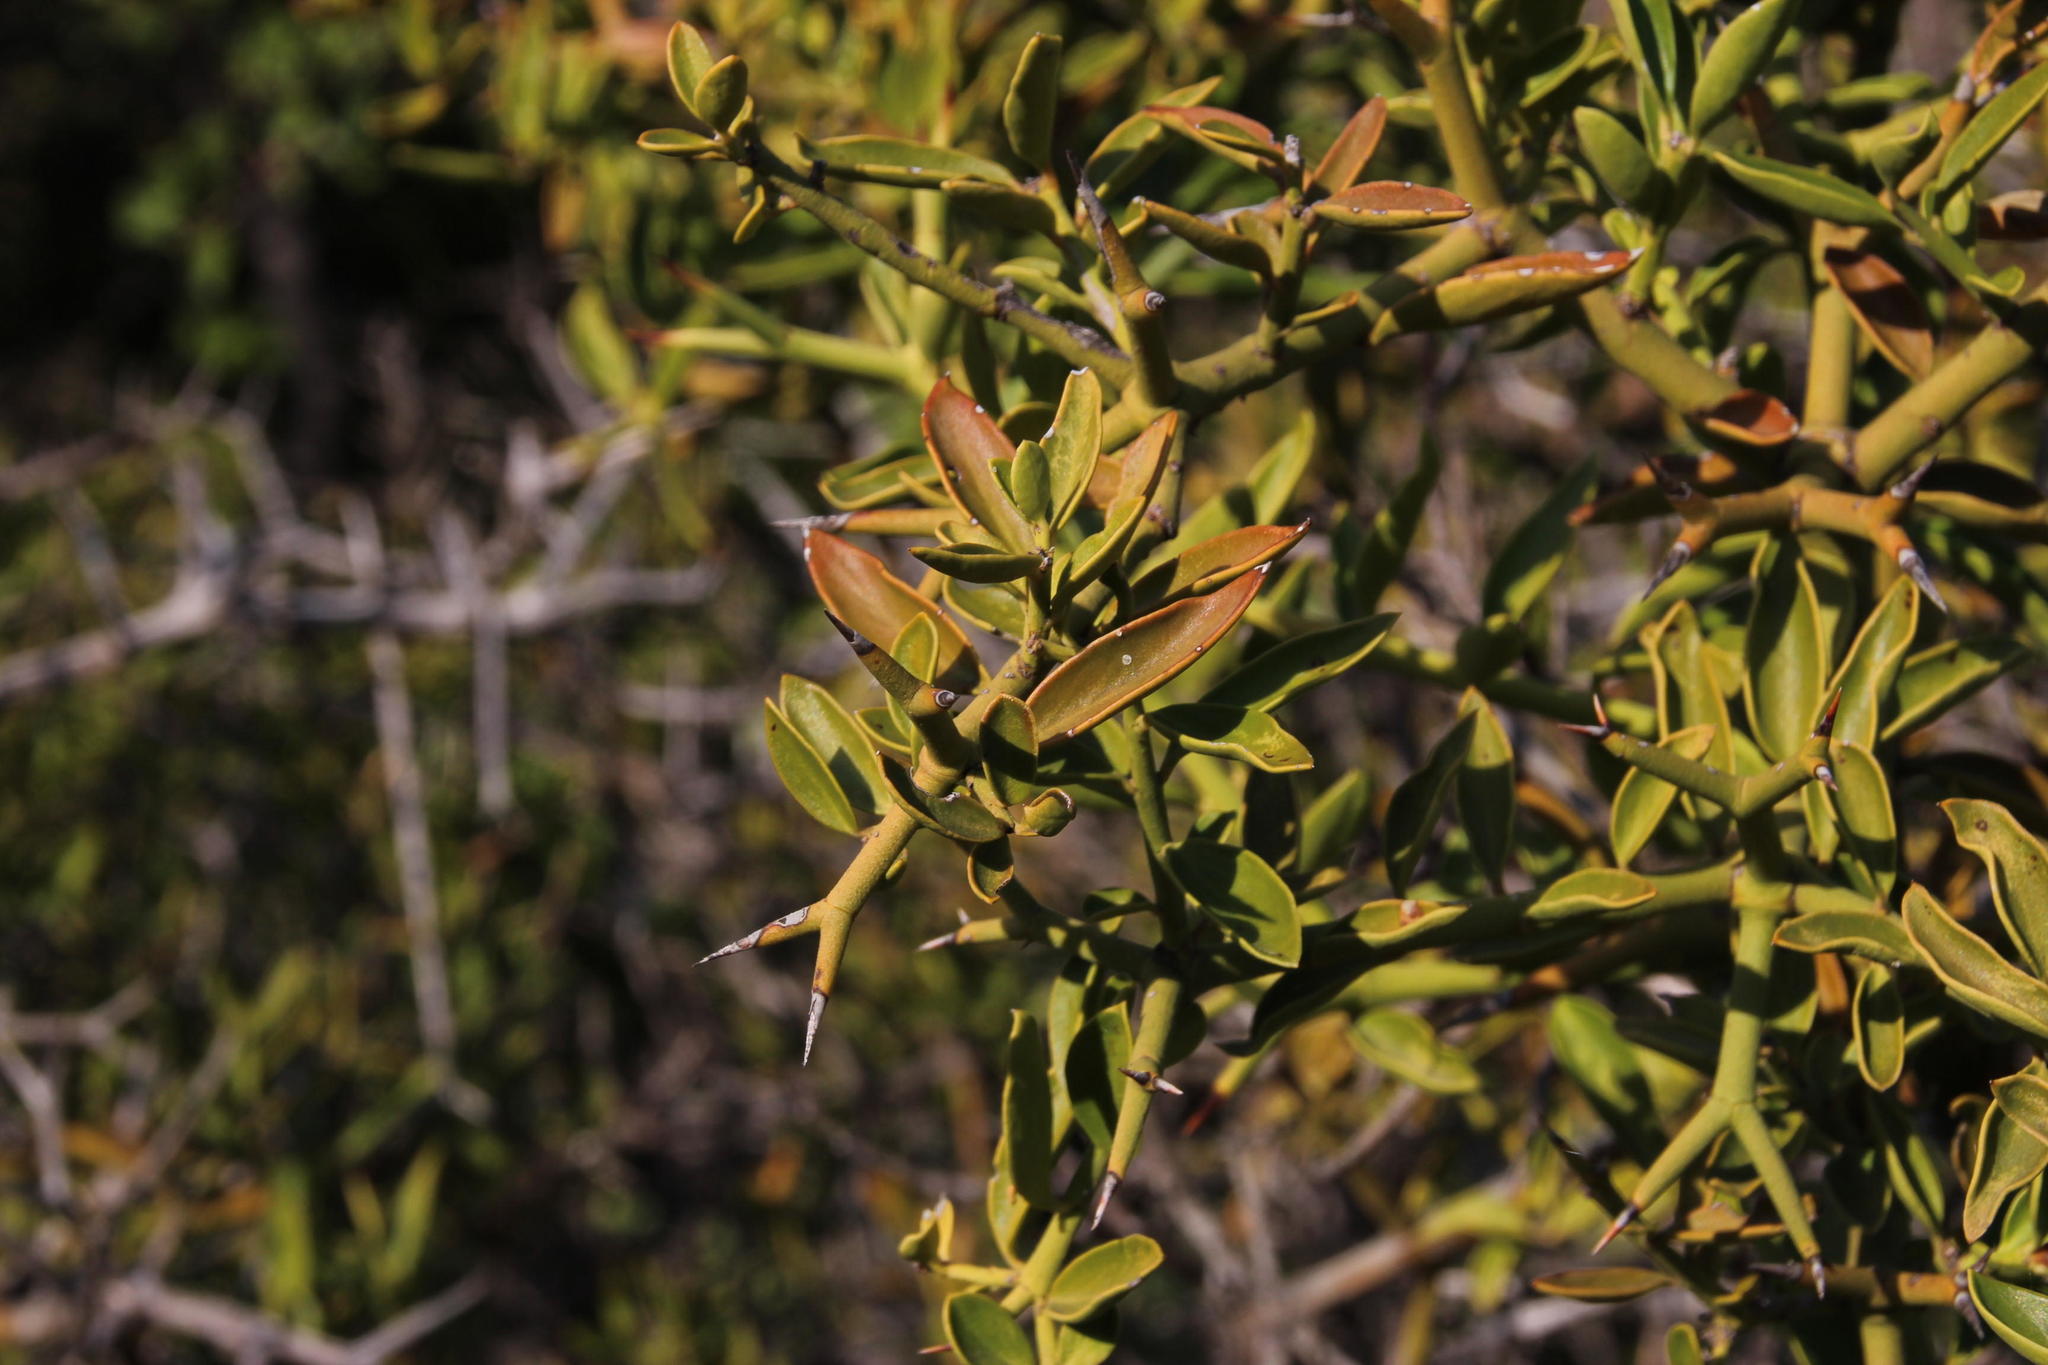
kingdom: Plantae
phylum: Tracheophyta
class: Magnoliopsida
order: Gentianales
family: Apocynaceae
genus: Carissa
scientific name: Carissa haematocarpa
